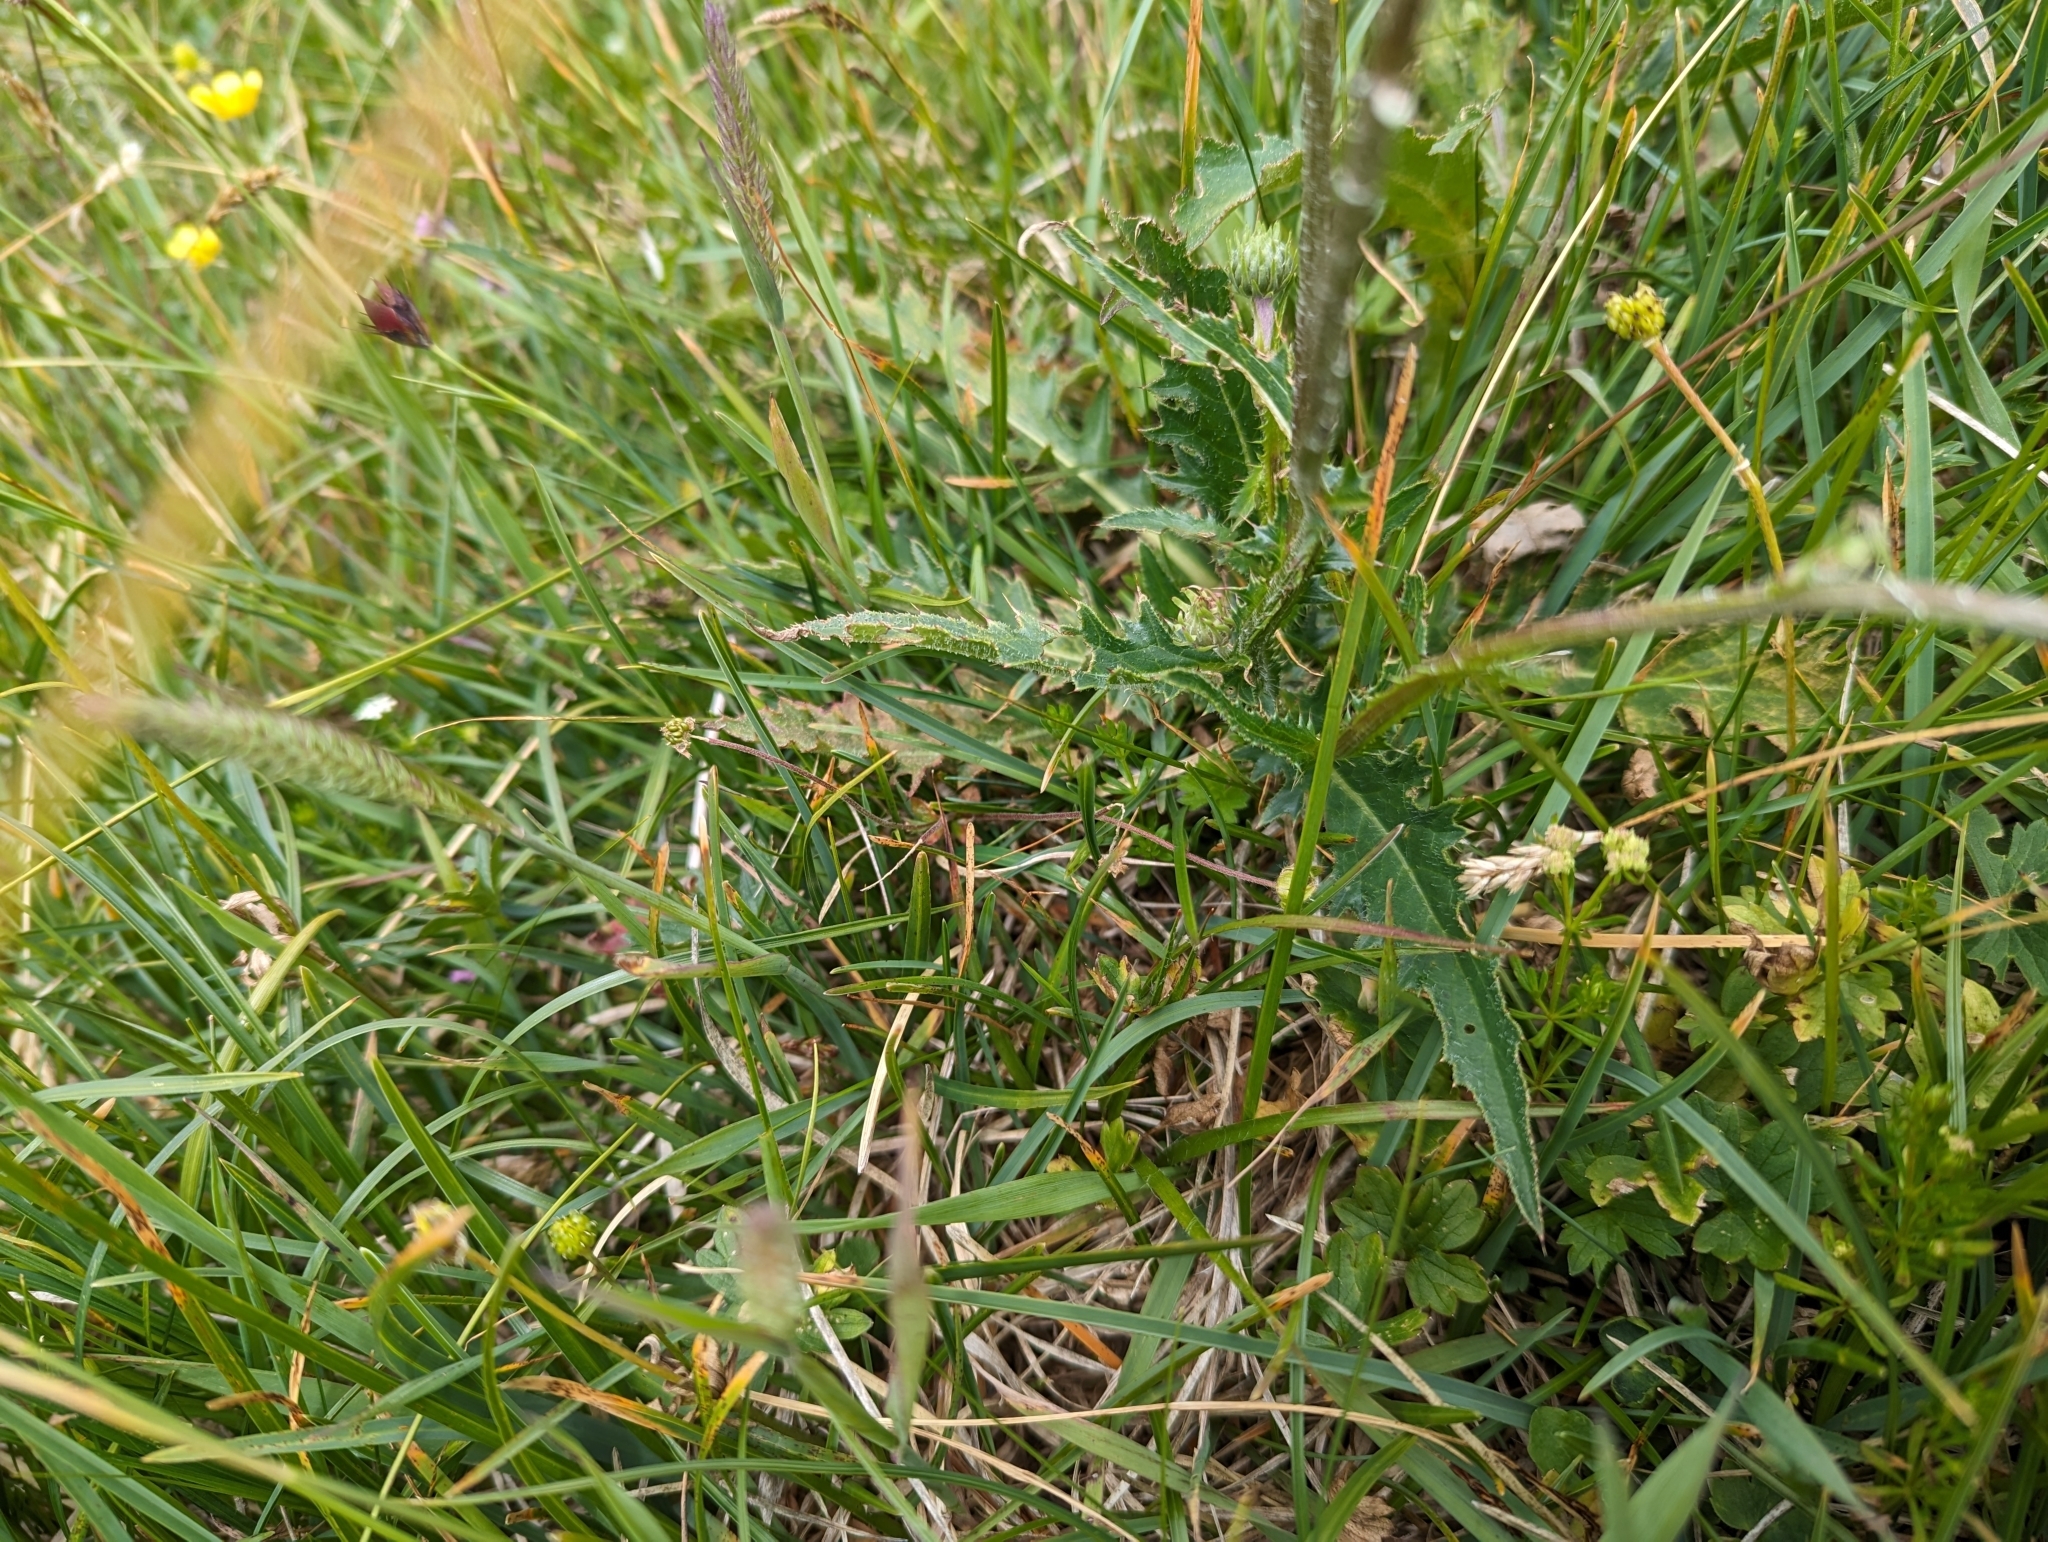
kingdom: Plantae
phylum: Tracheophyta
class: Magnoliopsida
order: Asterales
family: Asteraceae
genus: Carduus
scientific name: Carduus defloratus
